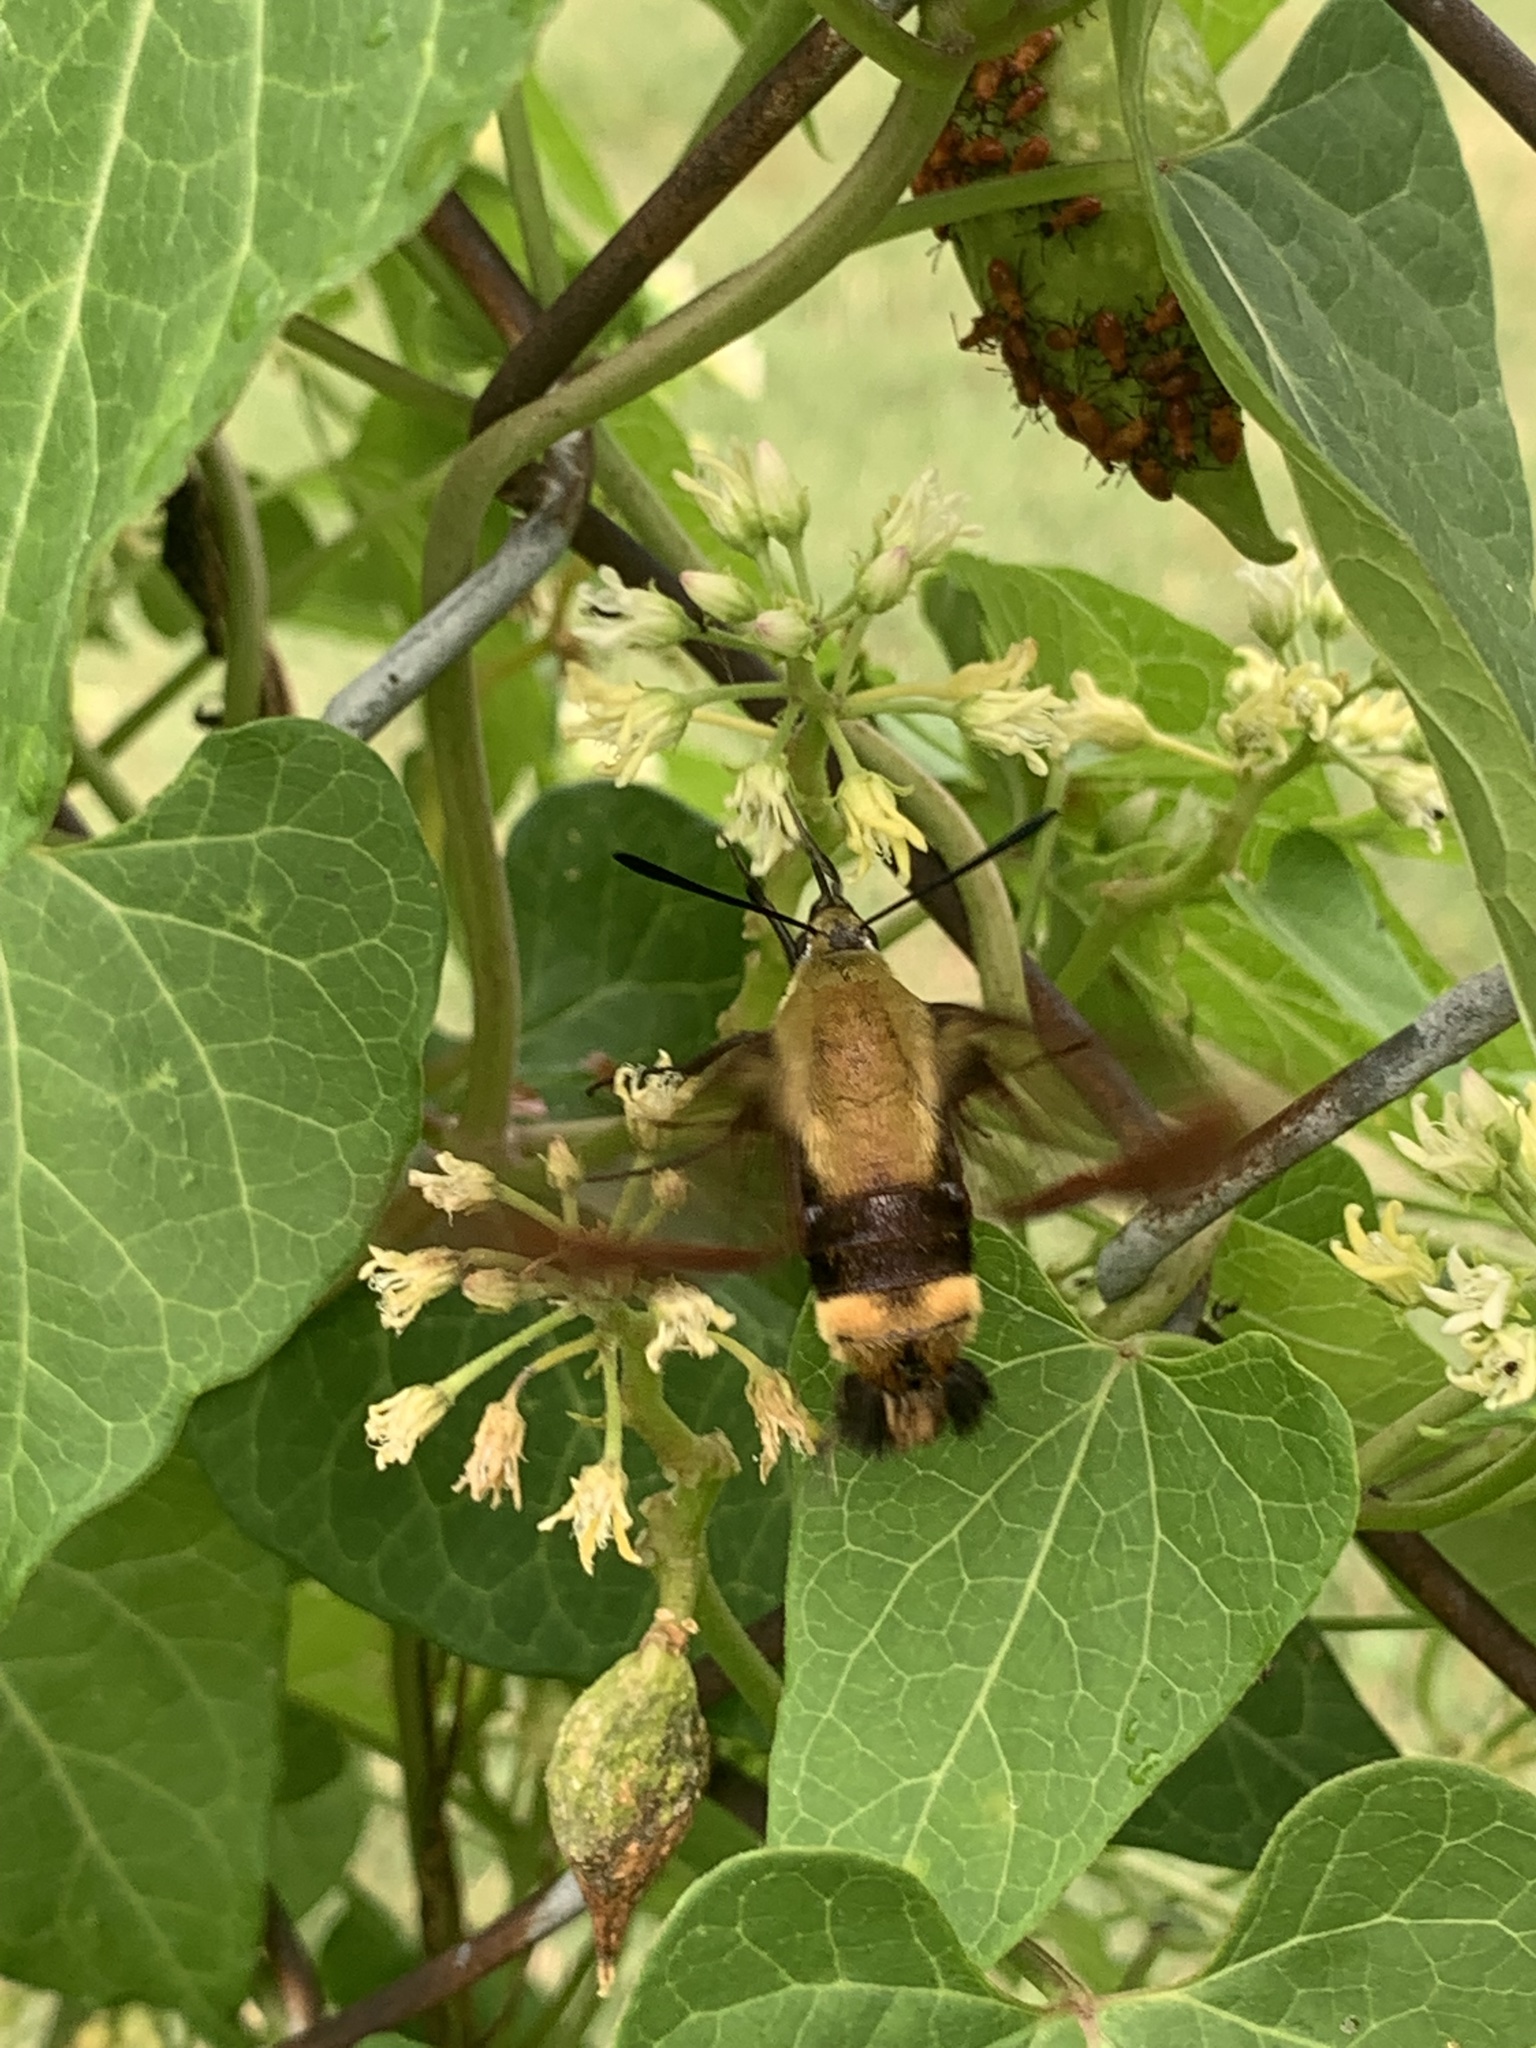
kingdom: Animalia
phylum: Arthropoda
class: Insecta
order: Lepidoptera
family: Sphingidae
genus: Hemaris
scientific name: Hemaris diffinis
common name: Bumblebee moth
